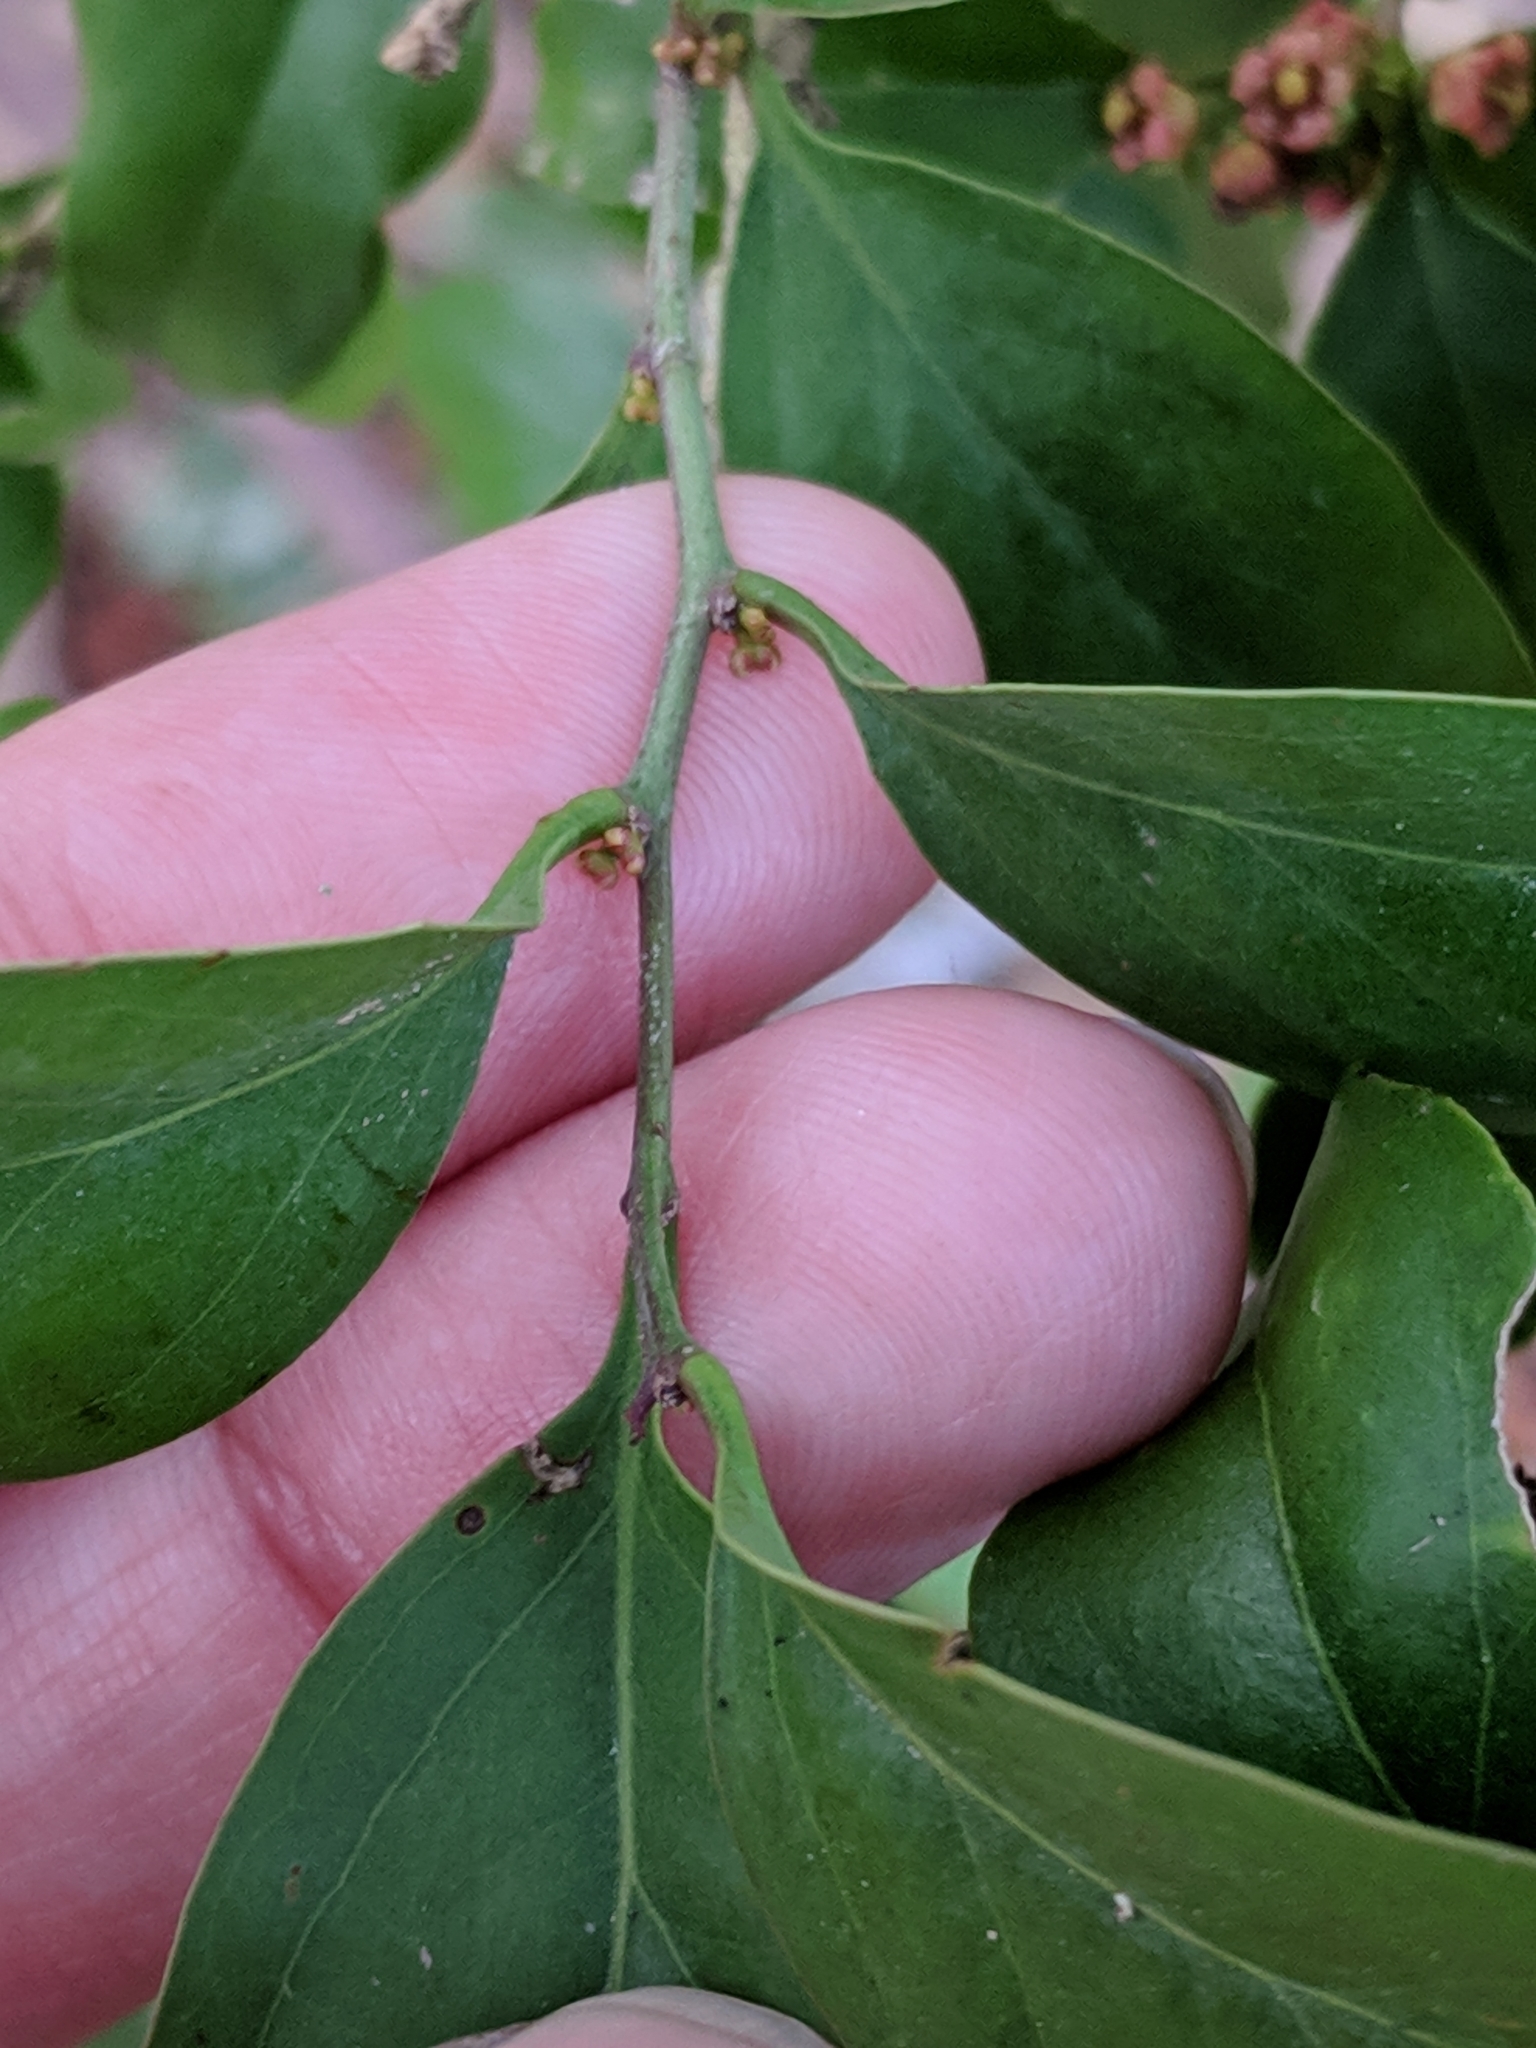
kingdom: Plantae
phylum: Tracheophyta
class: Magnoliopsida
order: Santalales
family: Schoepfiaceae
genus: Schoepfia
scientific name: Schoepfia schreberi
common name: Gulf graytwig
